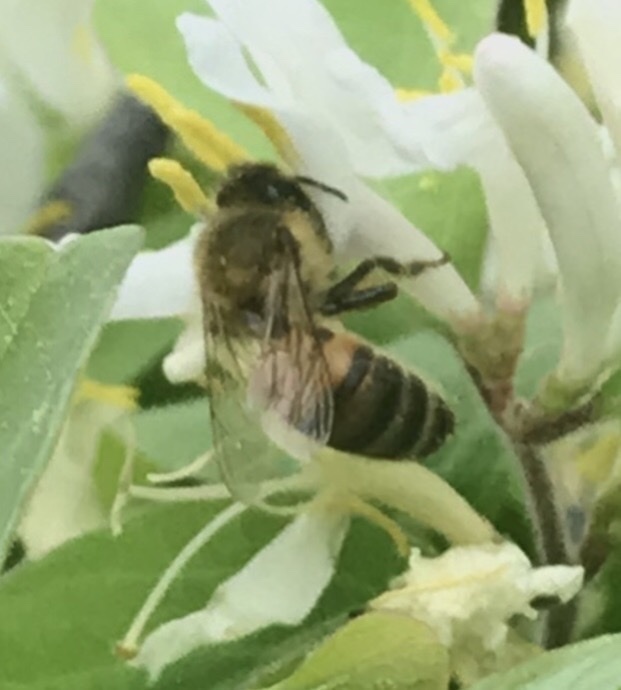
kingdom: Animalia
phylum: Arthropoda
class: Insecta
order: Hymenoptera
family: Apidae
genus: Apis
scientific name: Apis mellifera
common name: Honey bee
